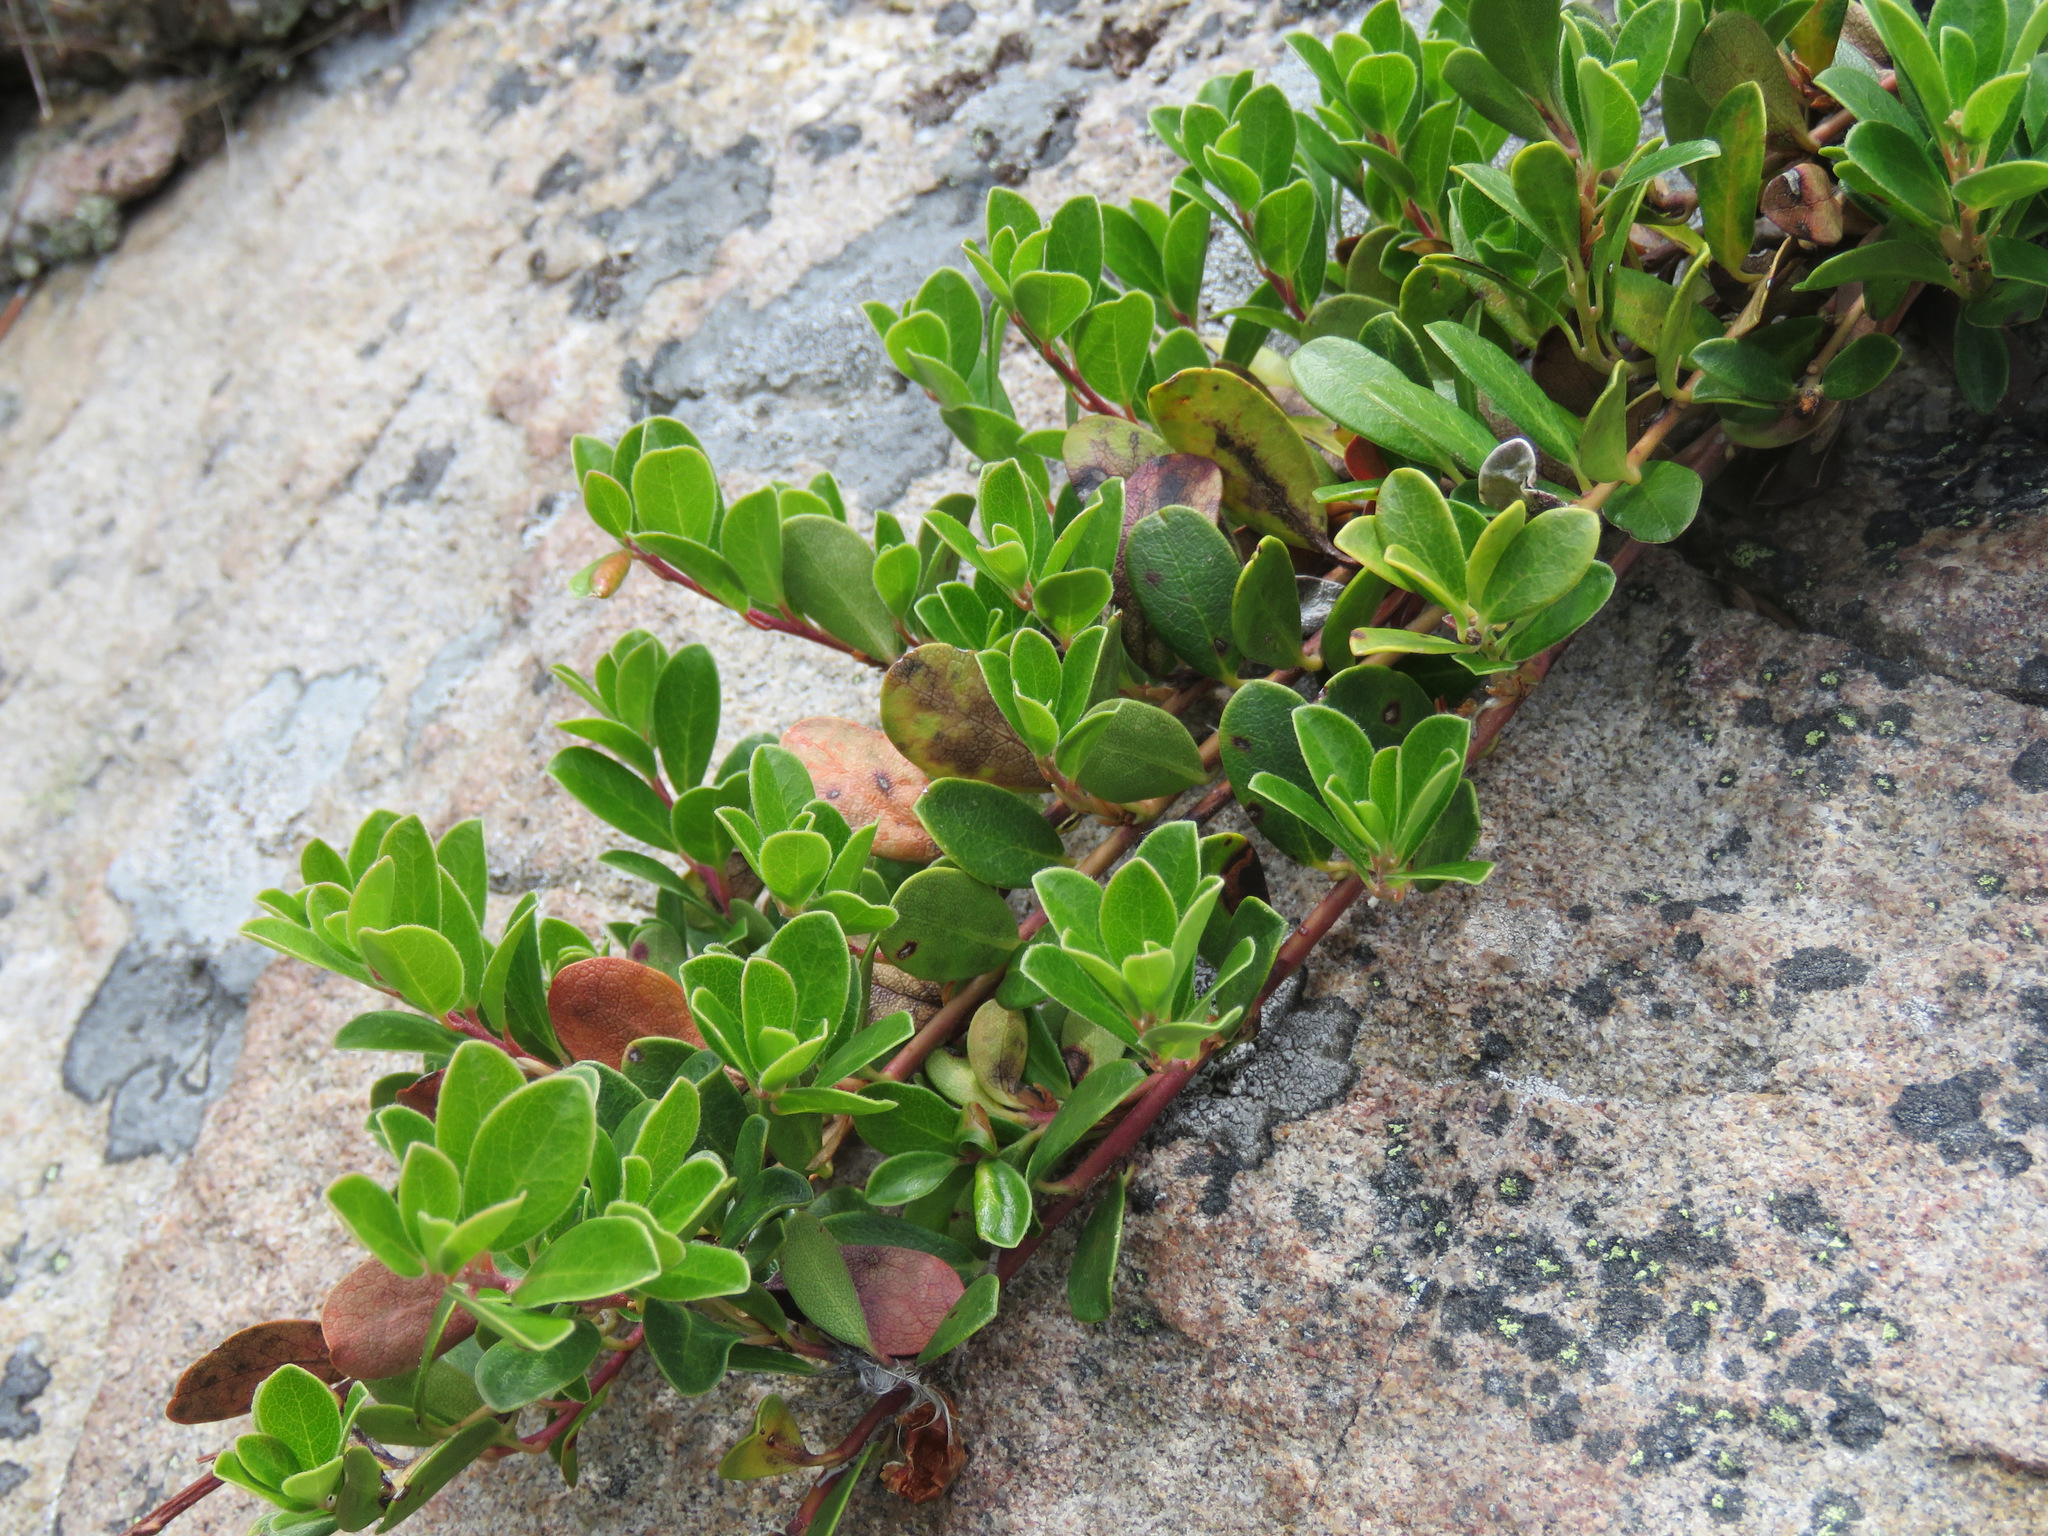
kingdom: Plantae
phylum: Tracheophyta
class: Magnoliopsida
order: Ericales
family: Ericaceae
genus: Arctostaphylos
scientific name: Arctostaphylos uva-ursi
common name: Bearberry
